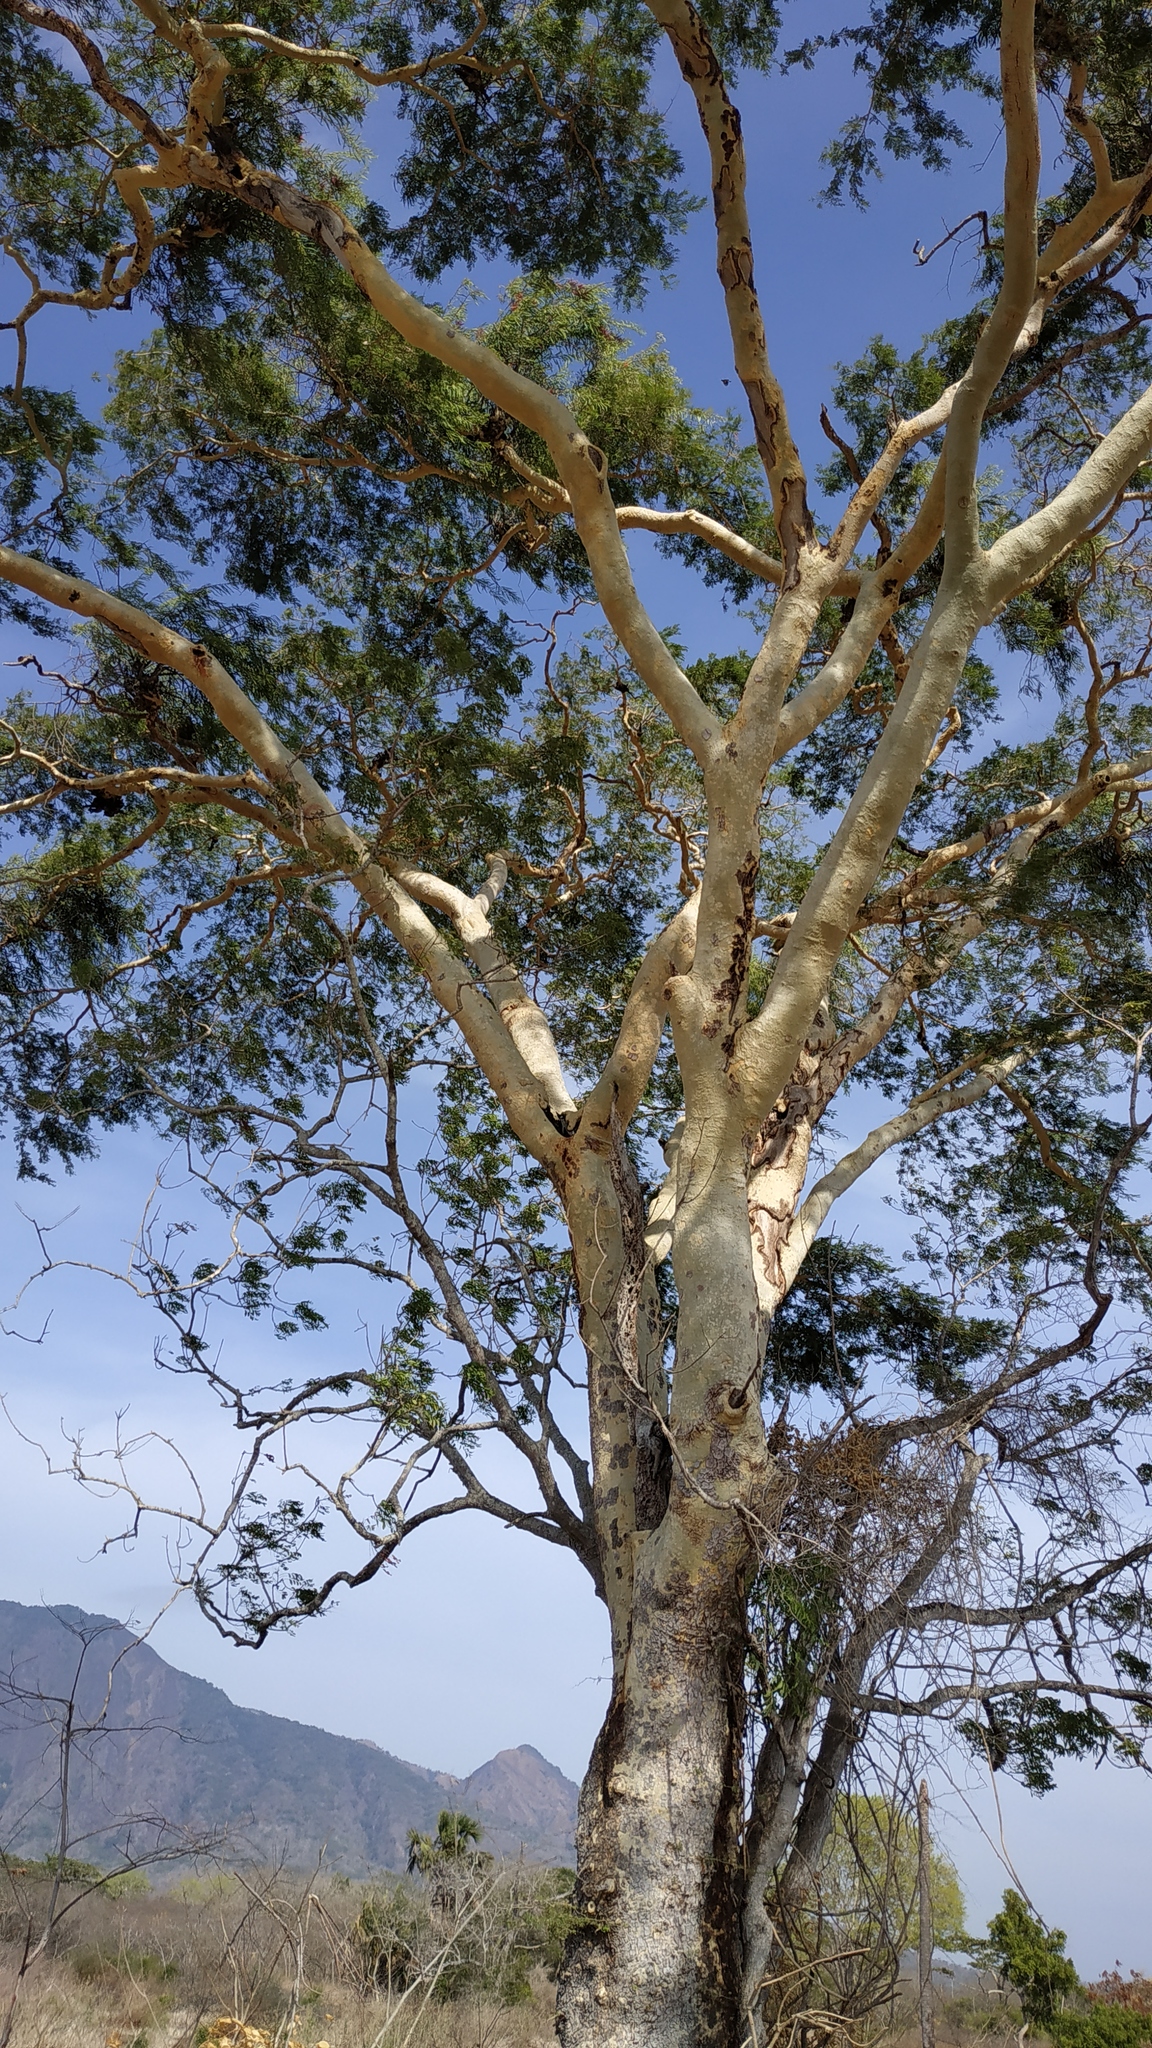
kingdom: Plantae
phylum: Tracheophyta
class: Magnoliopsida
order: Fabales
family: Fabaceae
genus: Vachellia
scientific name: Vachellia leucophloea
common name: Distiller's acacia
